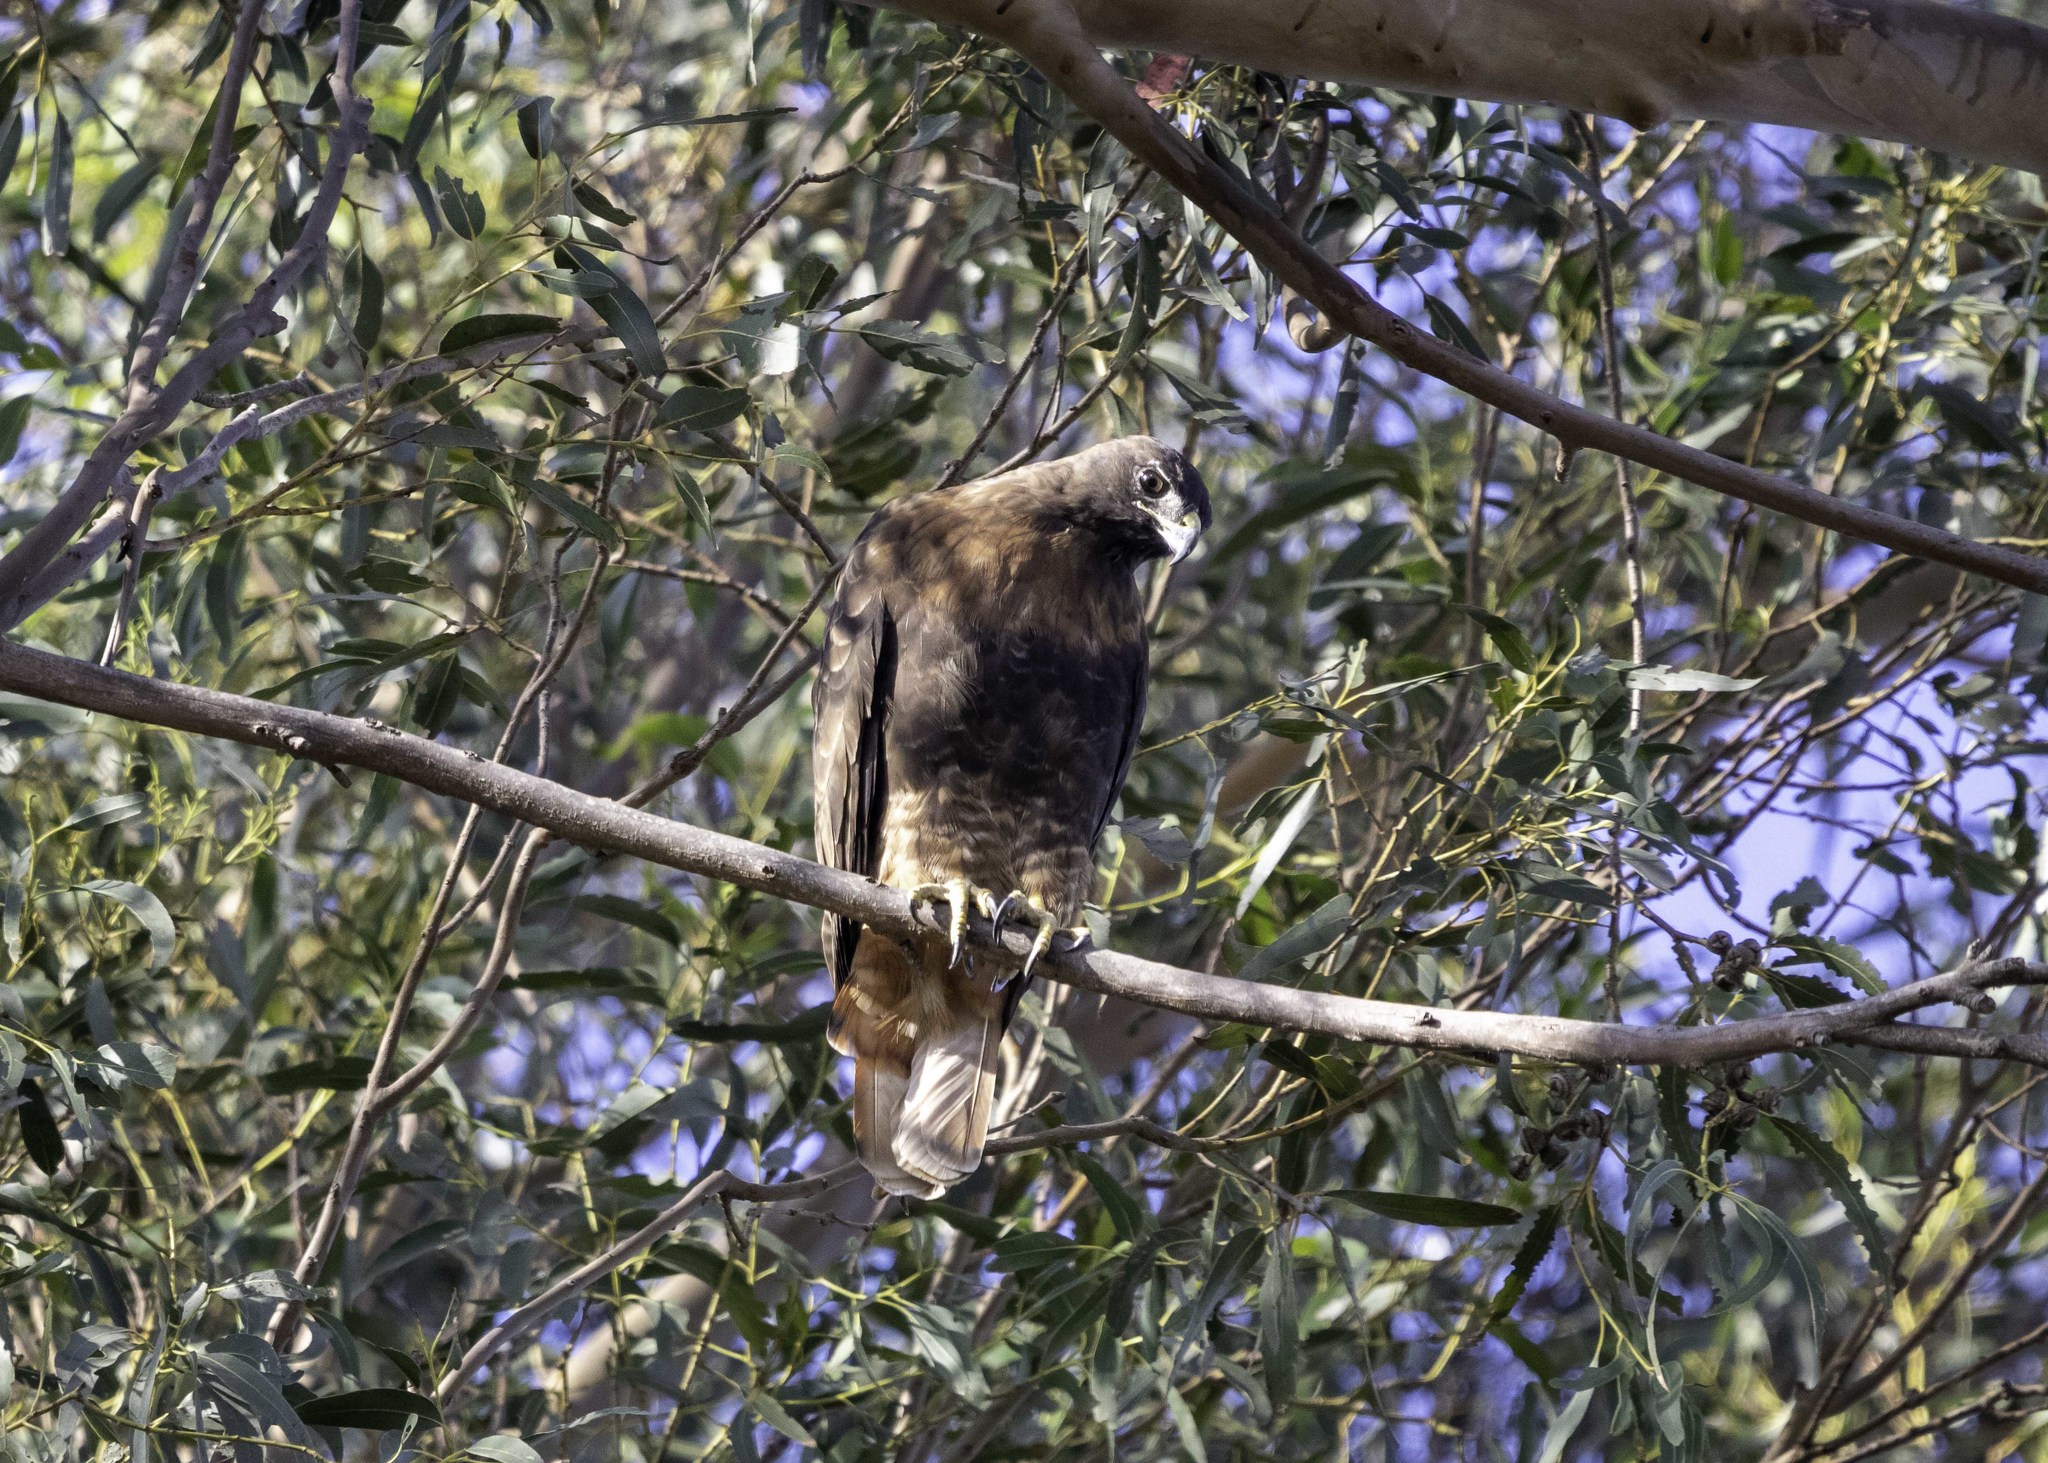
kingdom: Animalia
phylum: Chordata
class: Aves
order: Accipitriformes
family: Accipitridae
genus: Buteo
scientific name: Buteo jamaicensis
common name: Red-tailed hawk
